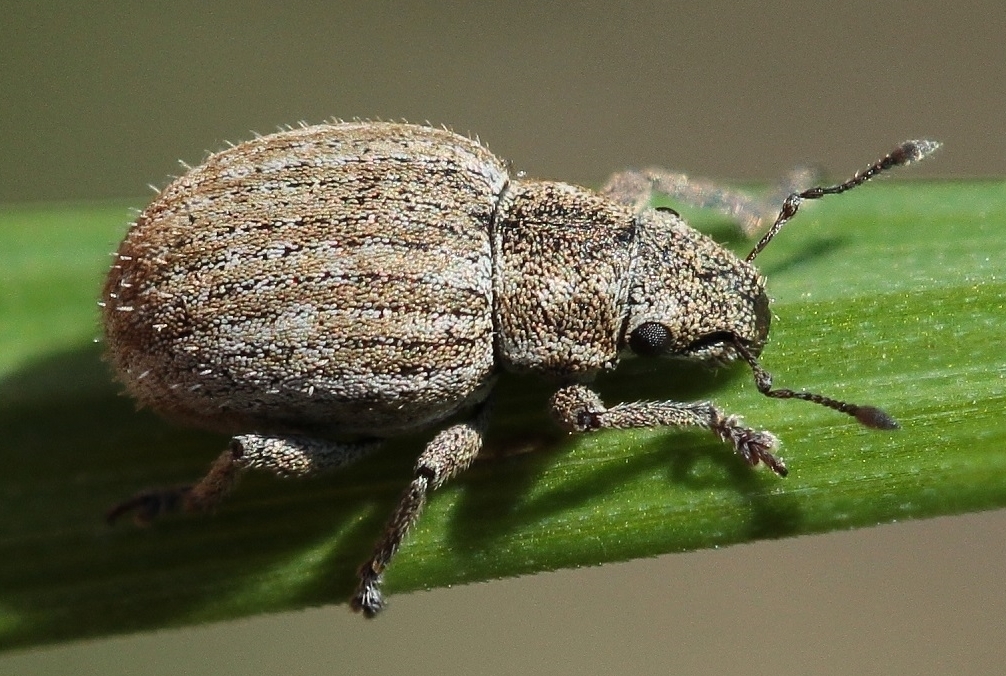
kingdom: Animalia
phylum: Arthropoda
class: Insecta
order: Coleoptera
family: Curculionidae
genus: Strophosoma
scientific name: Strophosoma albosignatum
